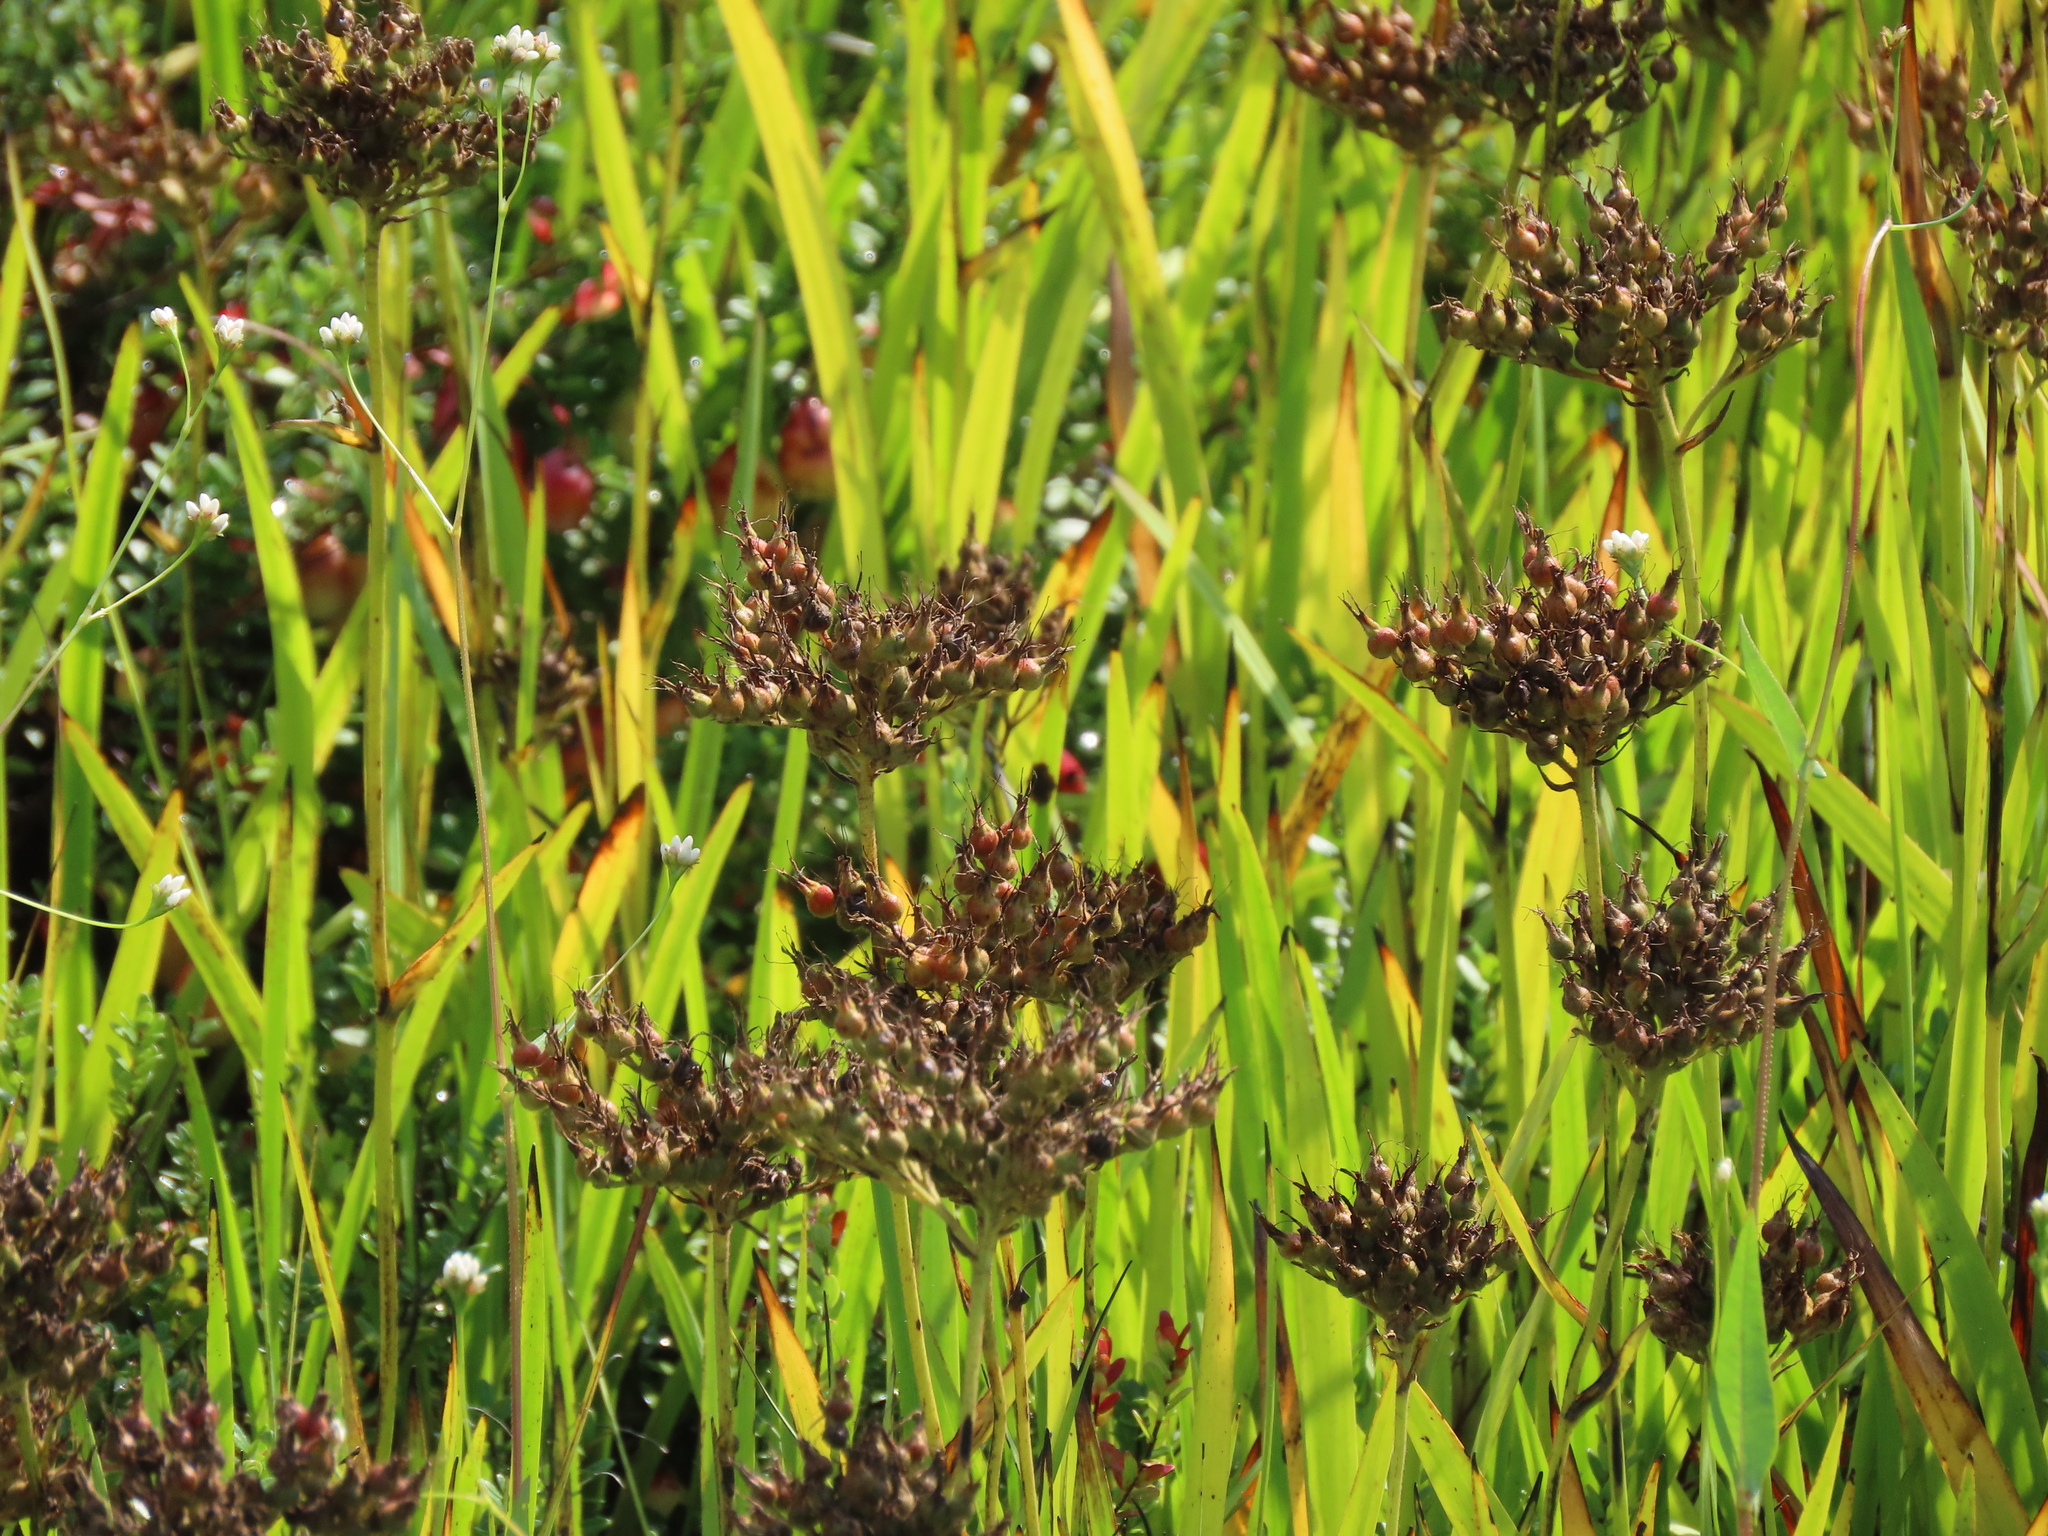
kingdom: Plantae
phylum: Tracheophyta
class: Liliopsida
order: Commelinales
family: Haemodoraceae
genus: Lachnanthes
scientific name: Lachnanthes caroliana
